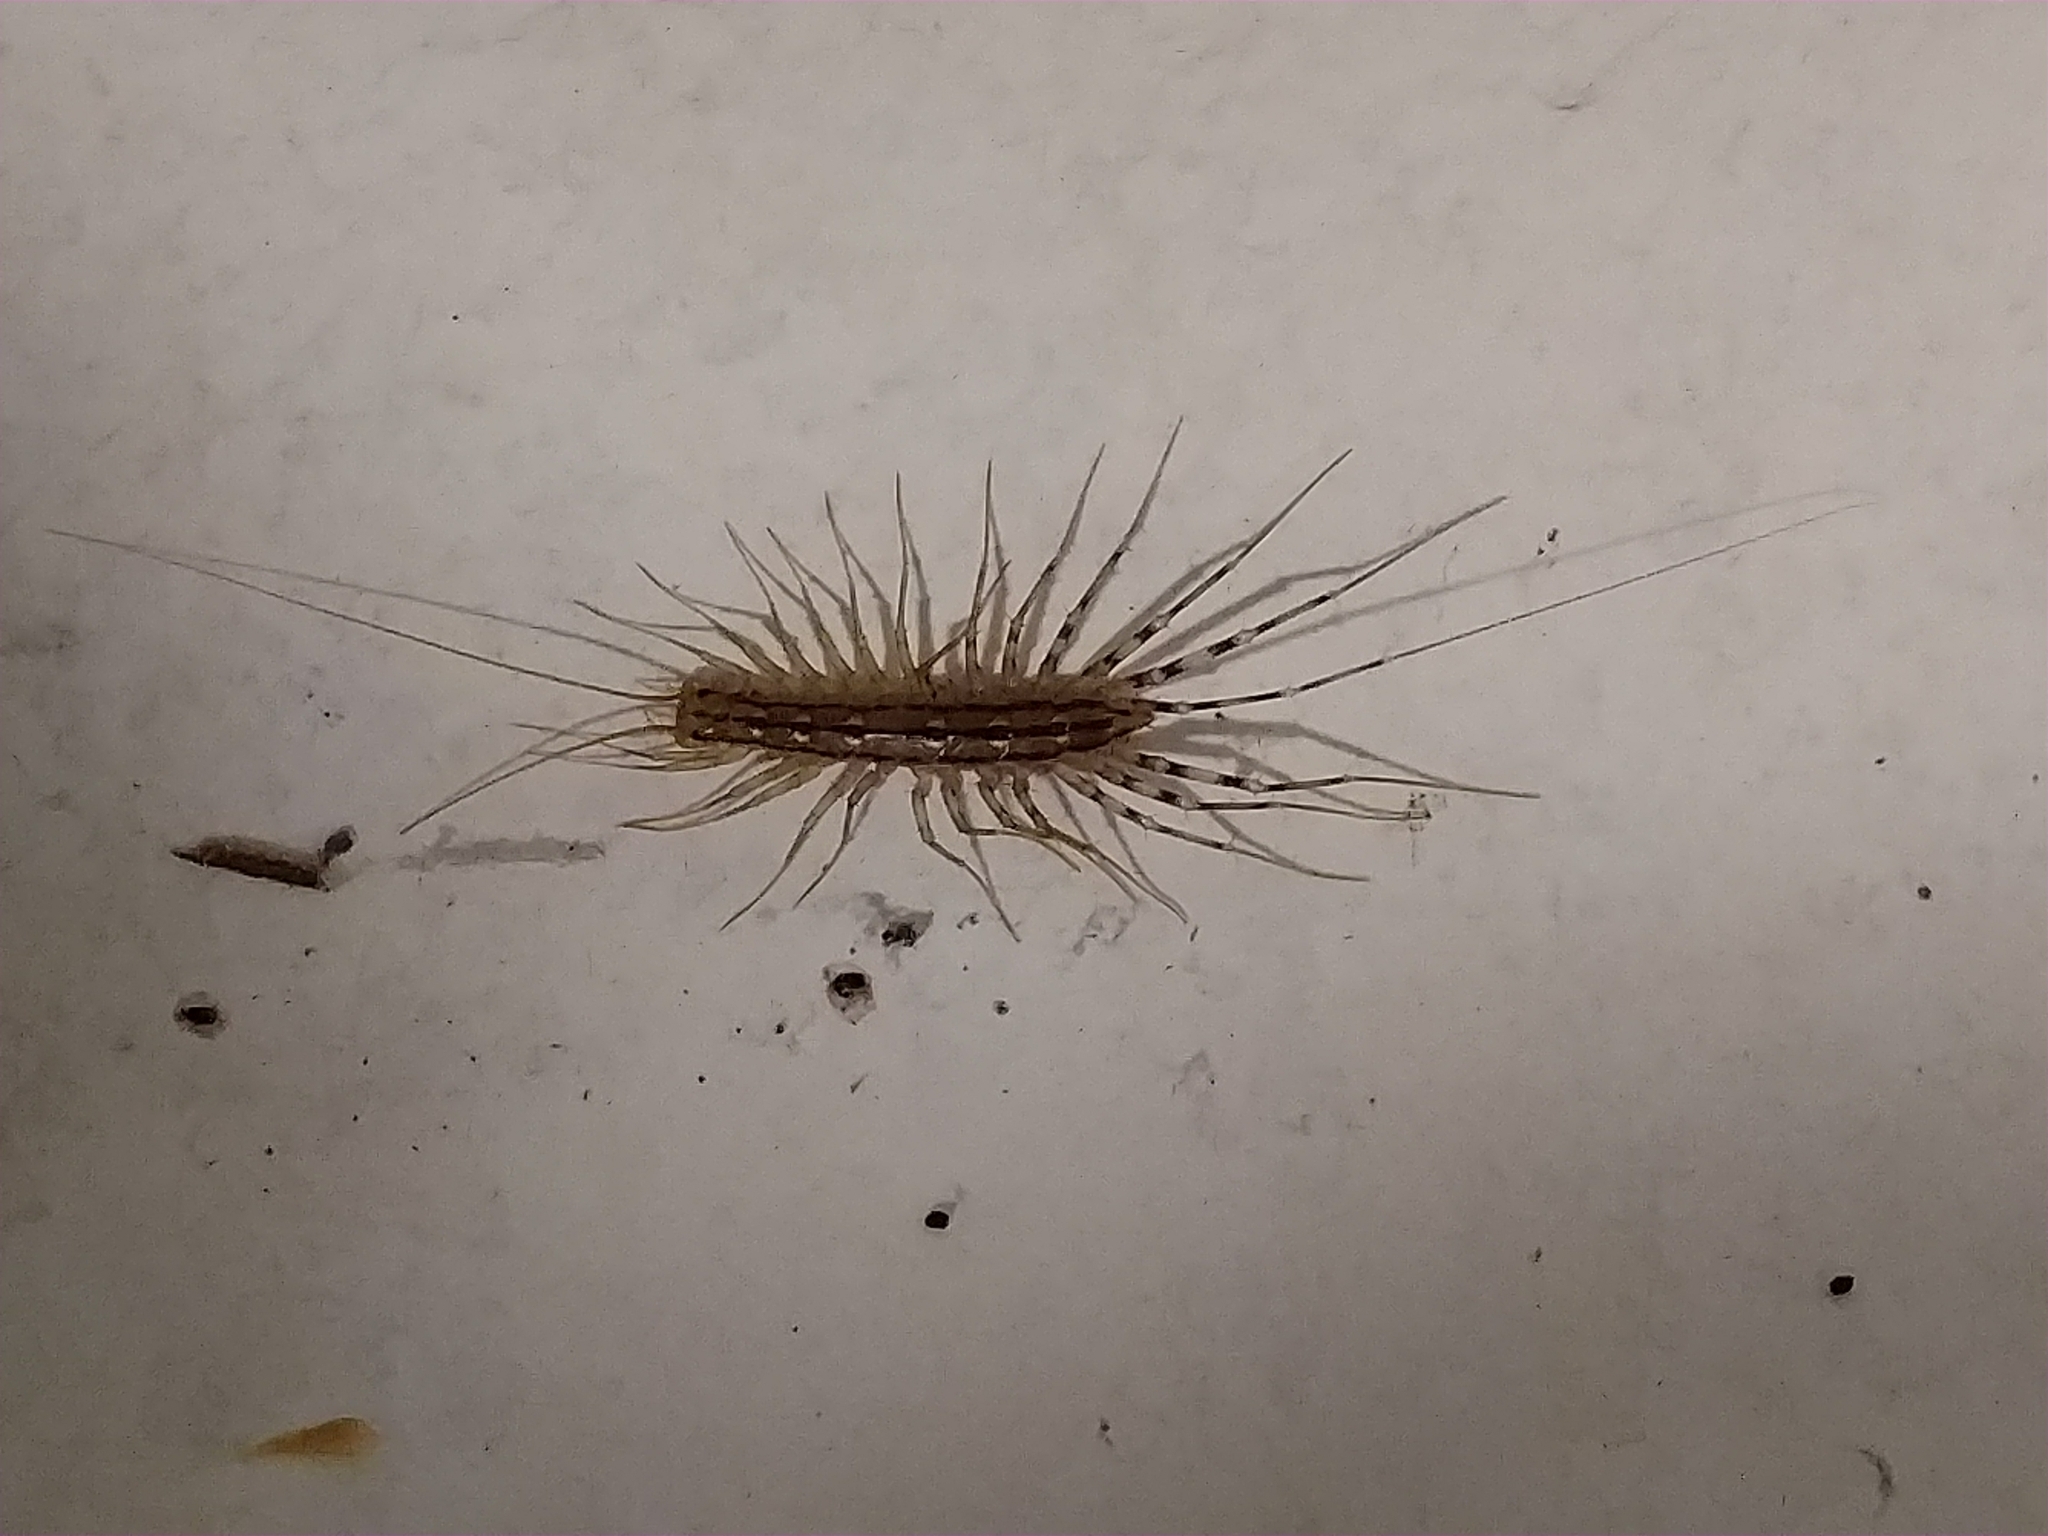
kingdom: Animalia
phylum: Arthropoda
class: Chilopoda
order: Scutigeromorpha
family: Scutigeridae
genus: Scutigera
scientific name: Scutigera coleoptrata
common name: House centipede
